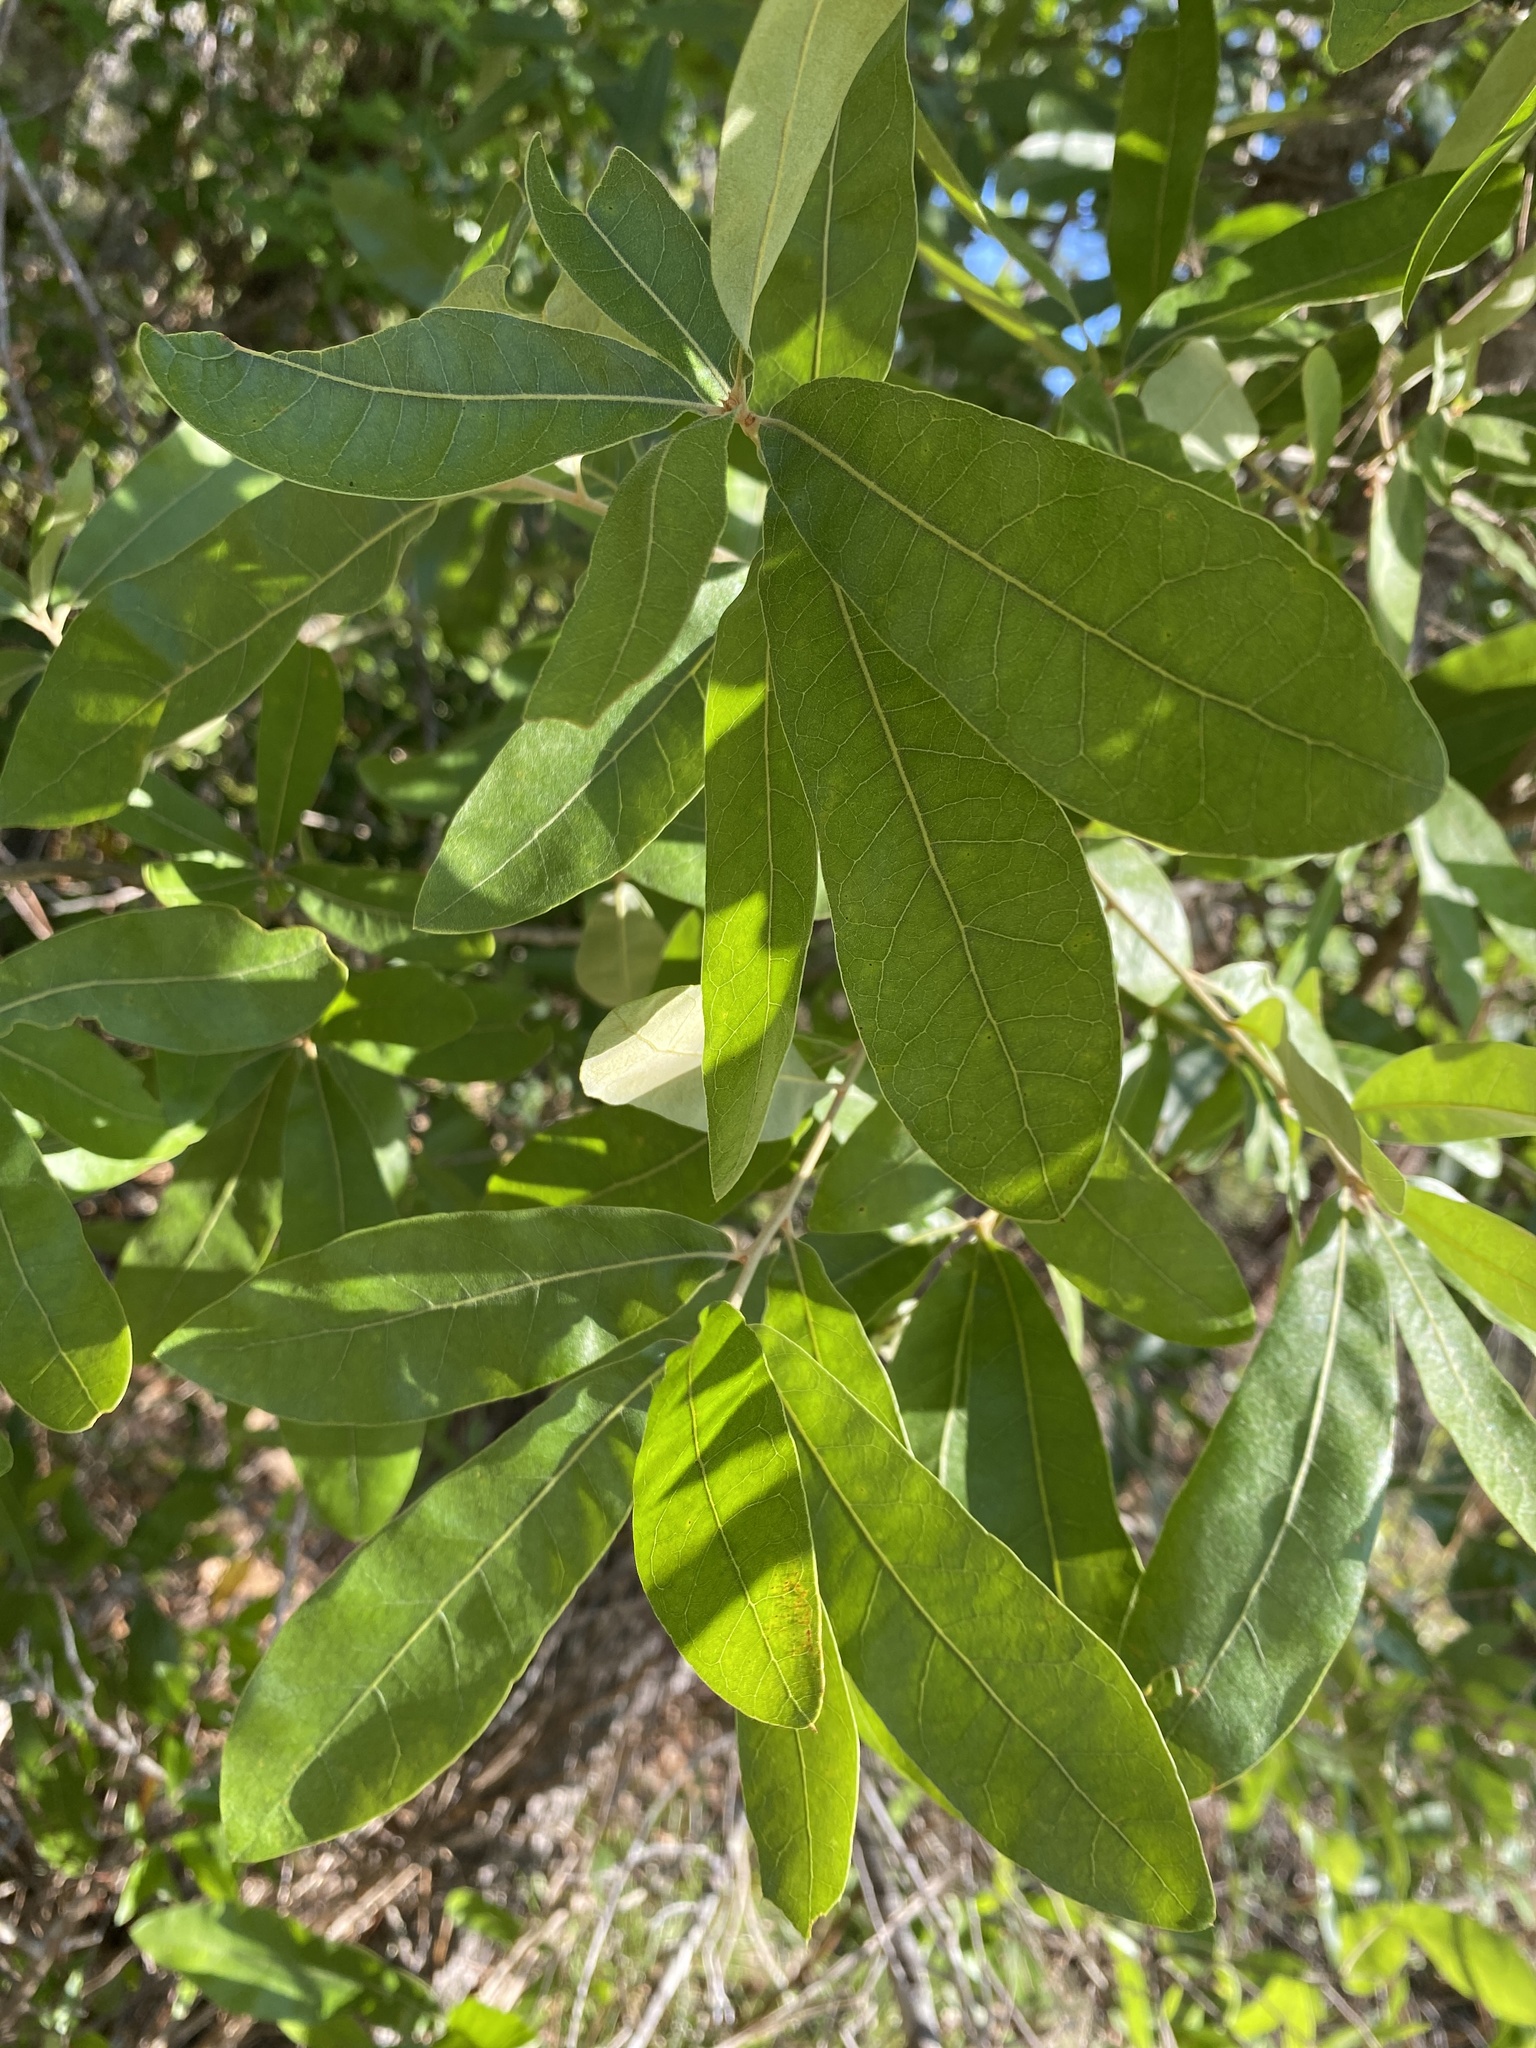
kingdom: Plantae
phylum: Tracheophyta
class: Magnoliopsida
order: Fagales
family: Fagaceae
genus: Quercus
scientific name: Quercus incana
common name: Bluejack oak
